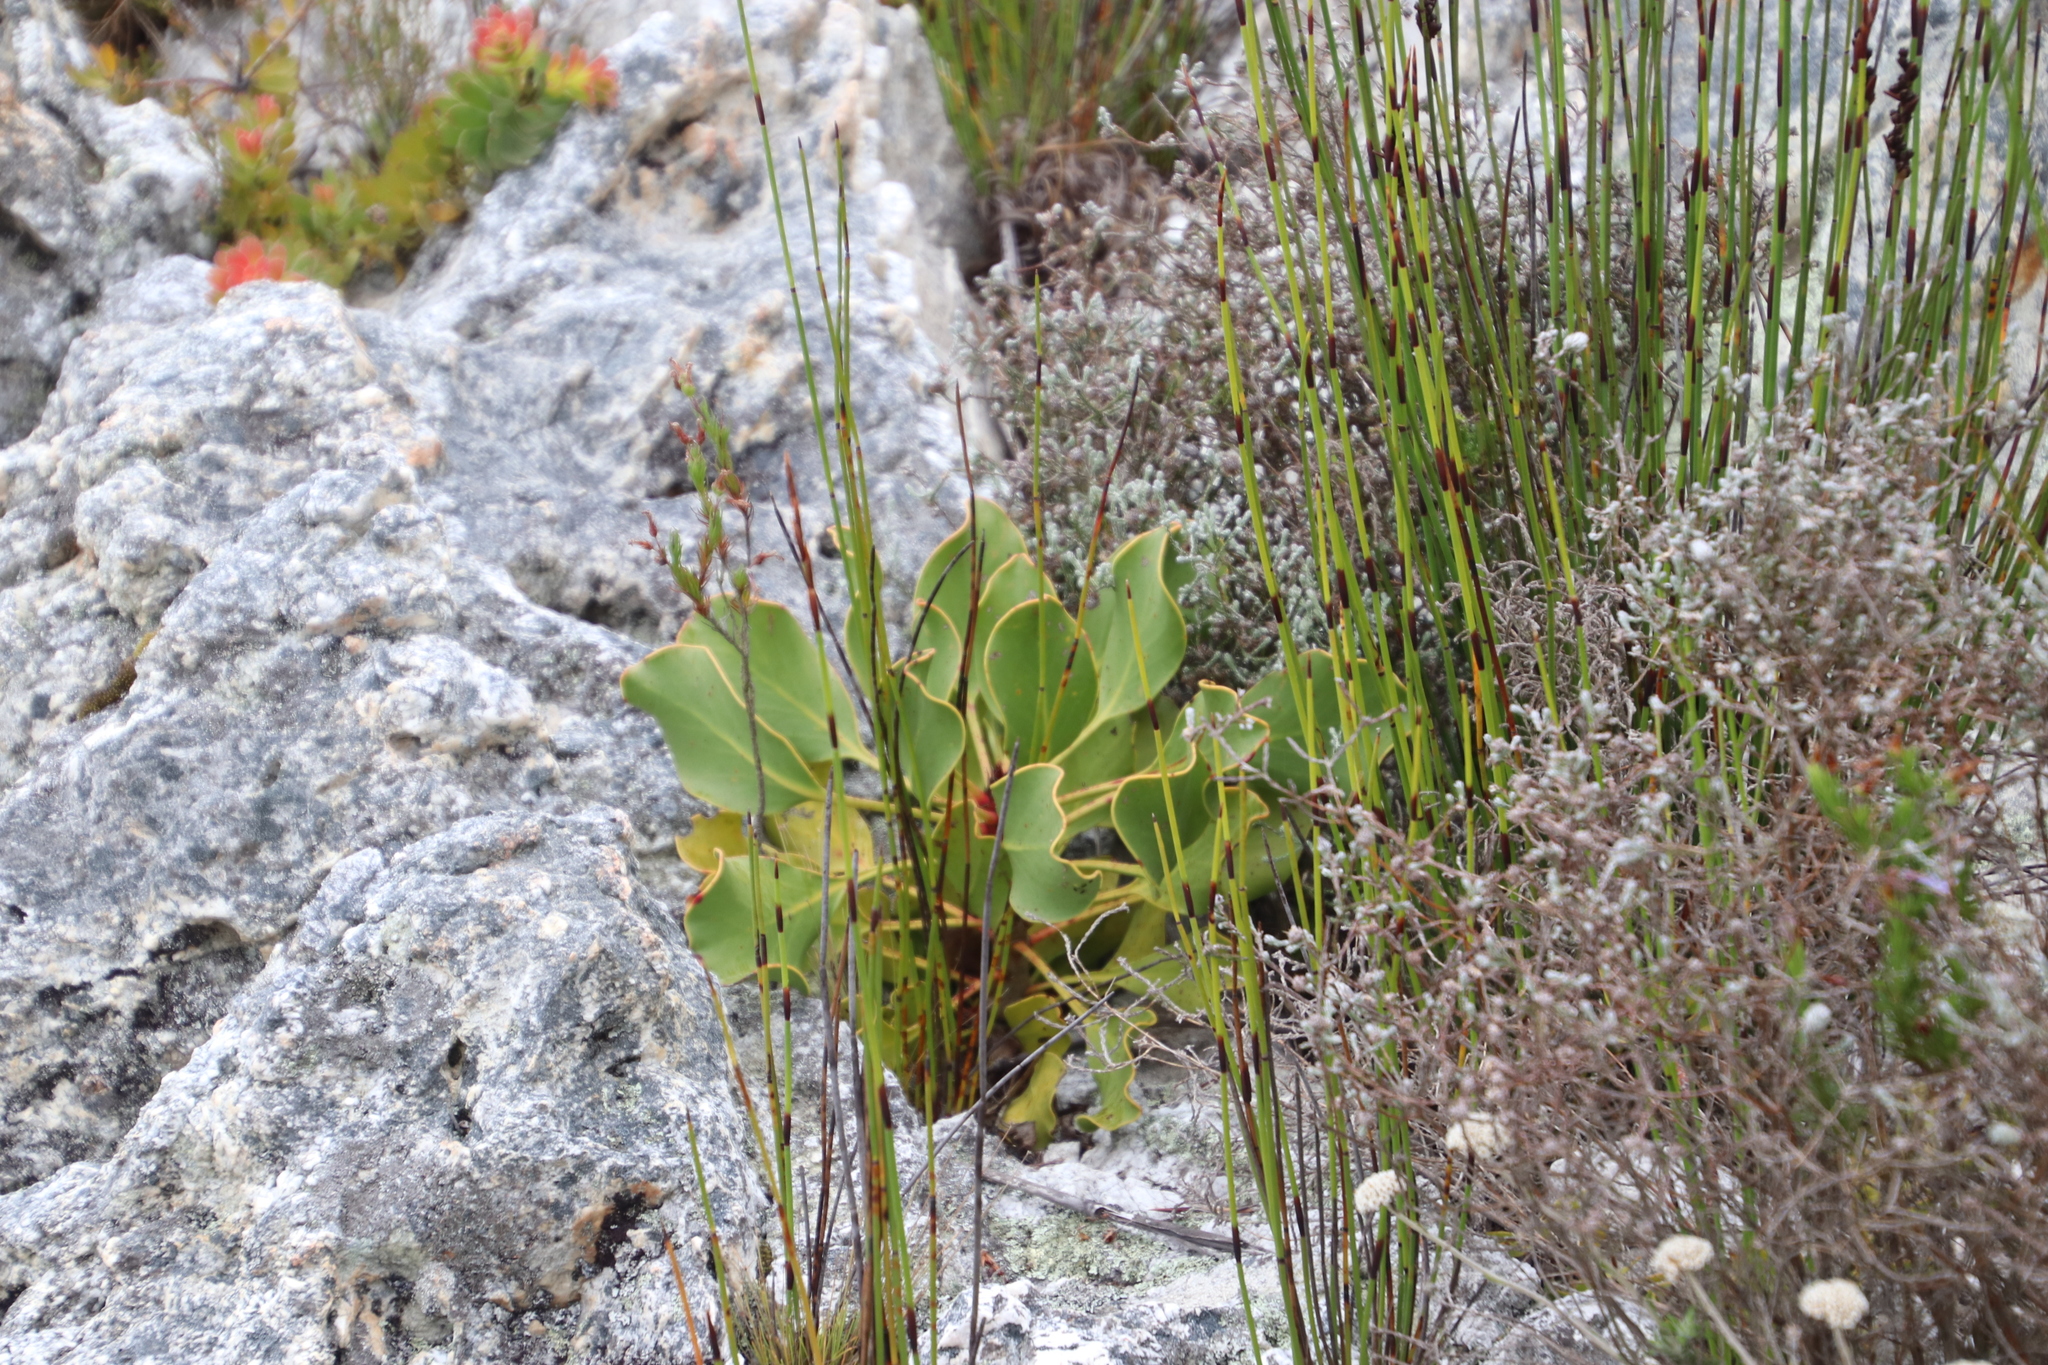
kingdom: Plantae
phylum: Tracheophyta
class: Magnoliopsida
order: Proteales
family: Proteaceae
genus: Protea
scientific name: Protea cynaroides
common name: King protea
